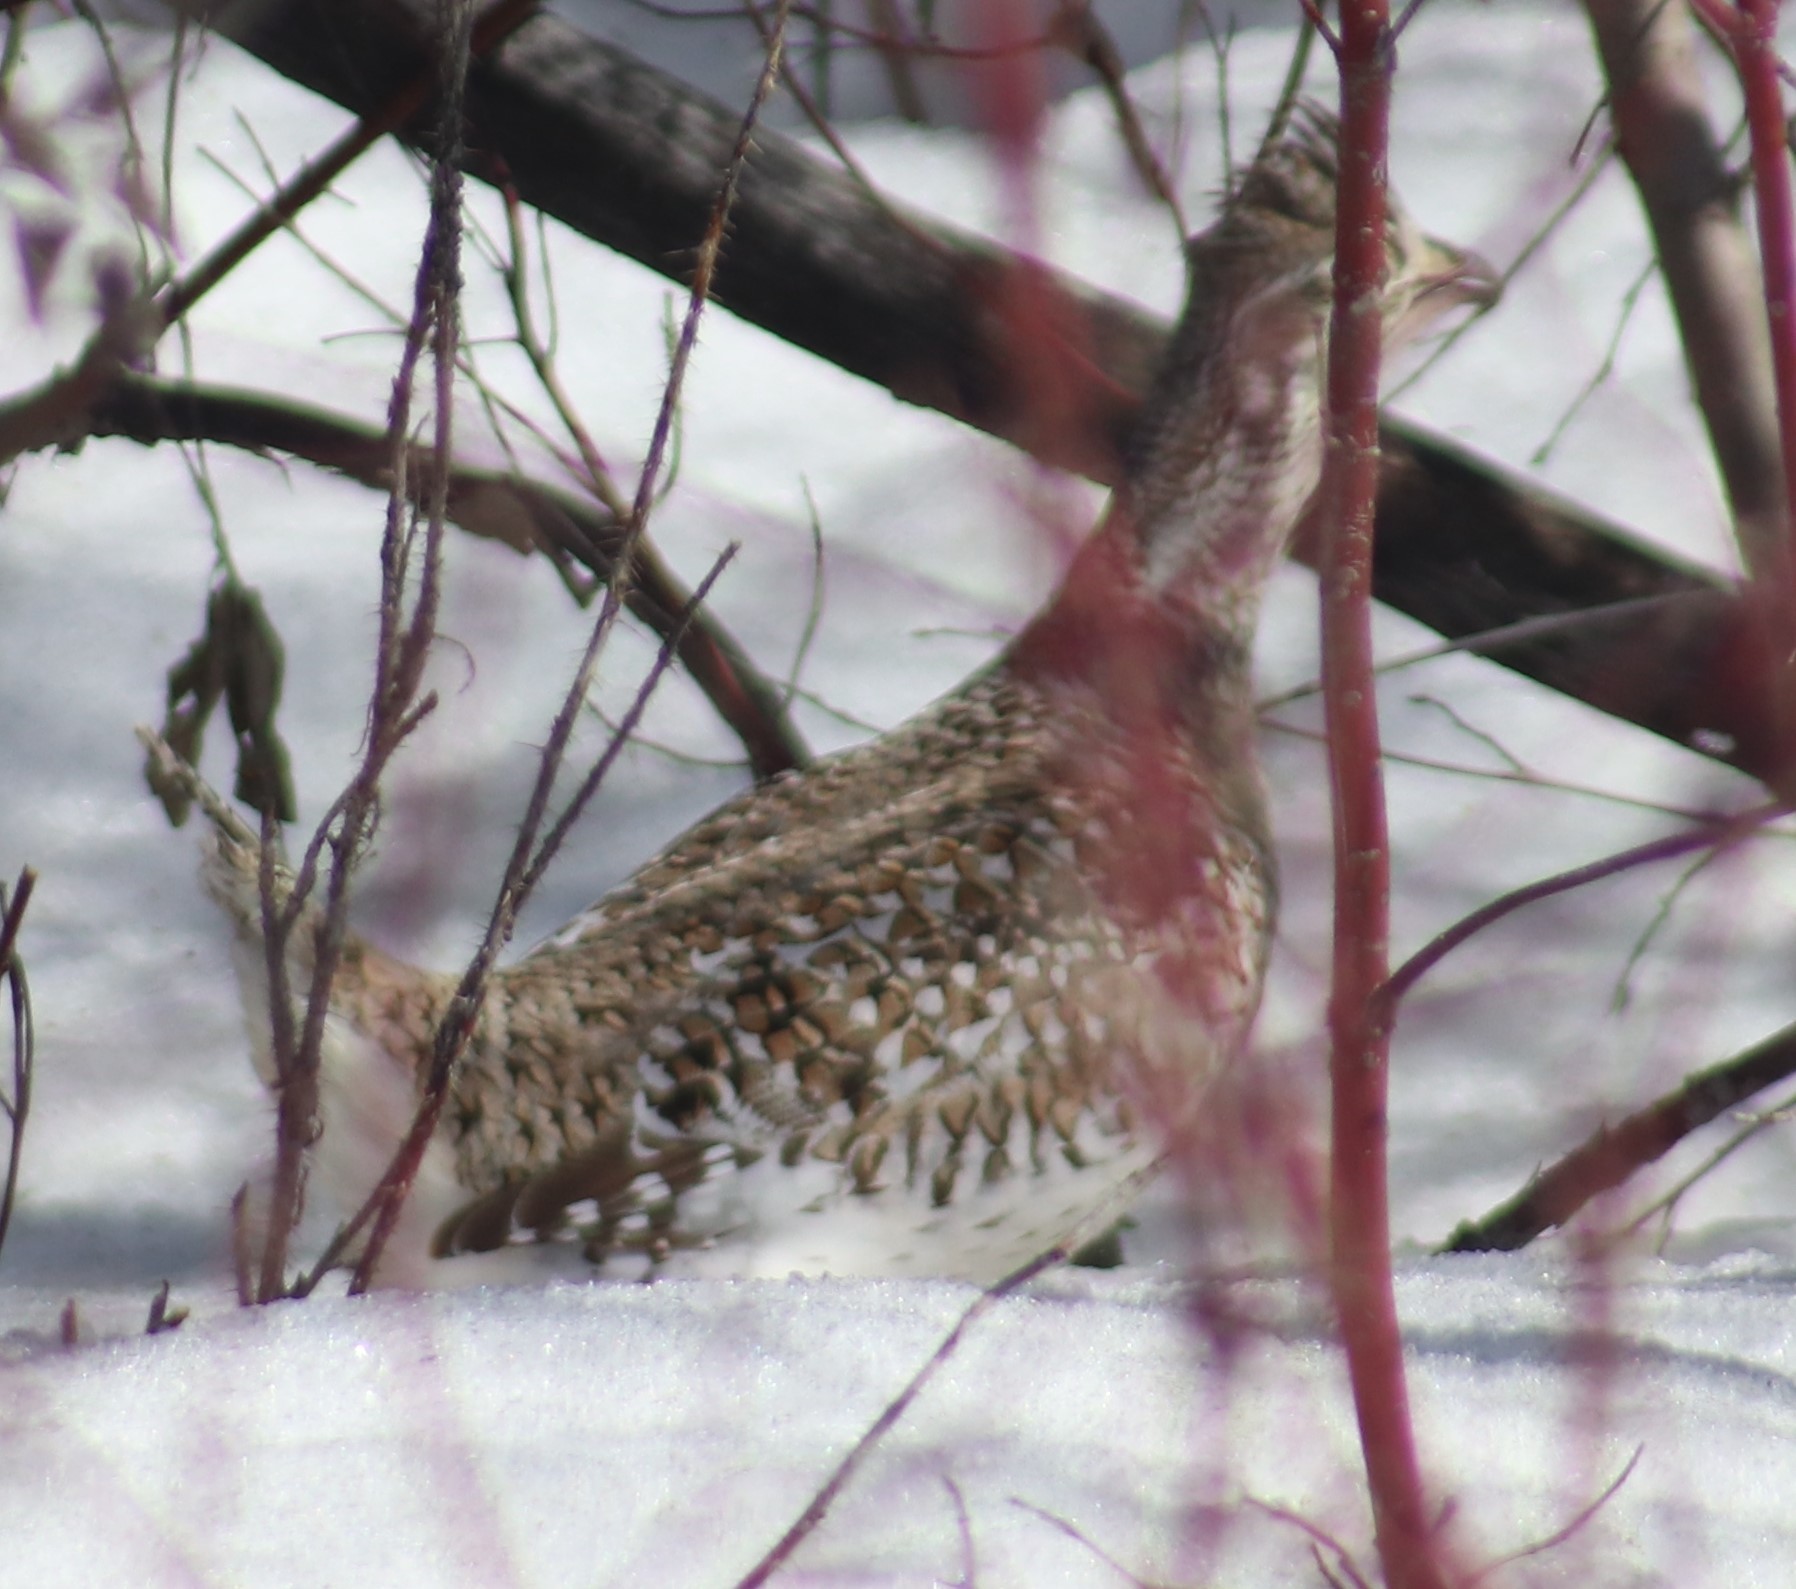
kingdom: Animalia
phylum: Chordata
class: Aves
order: Galliformes
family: Phasianidae
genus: Tympanuchus
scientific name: Tympanuchus phasianellus
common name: Sharp-tailed grouse
